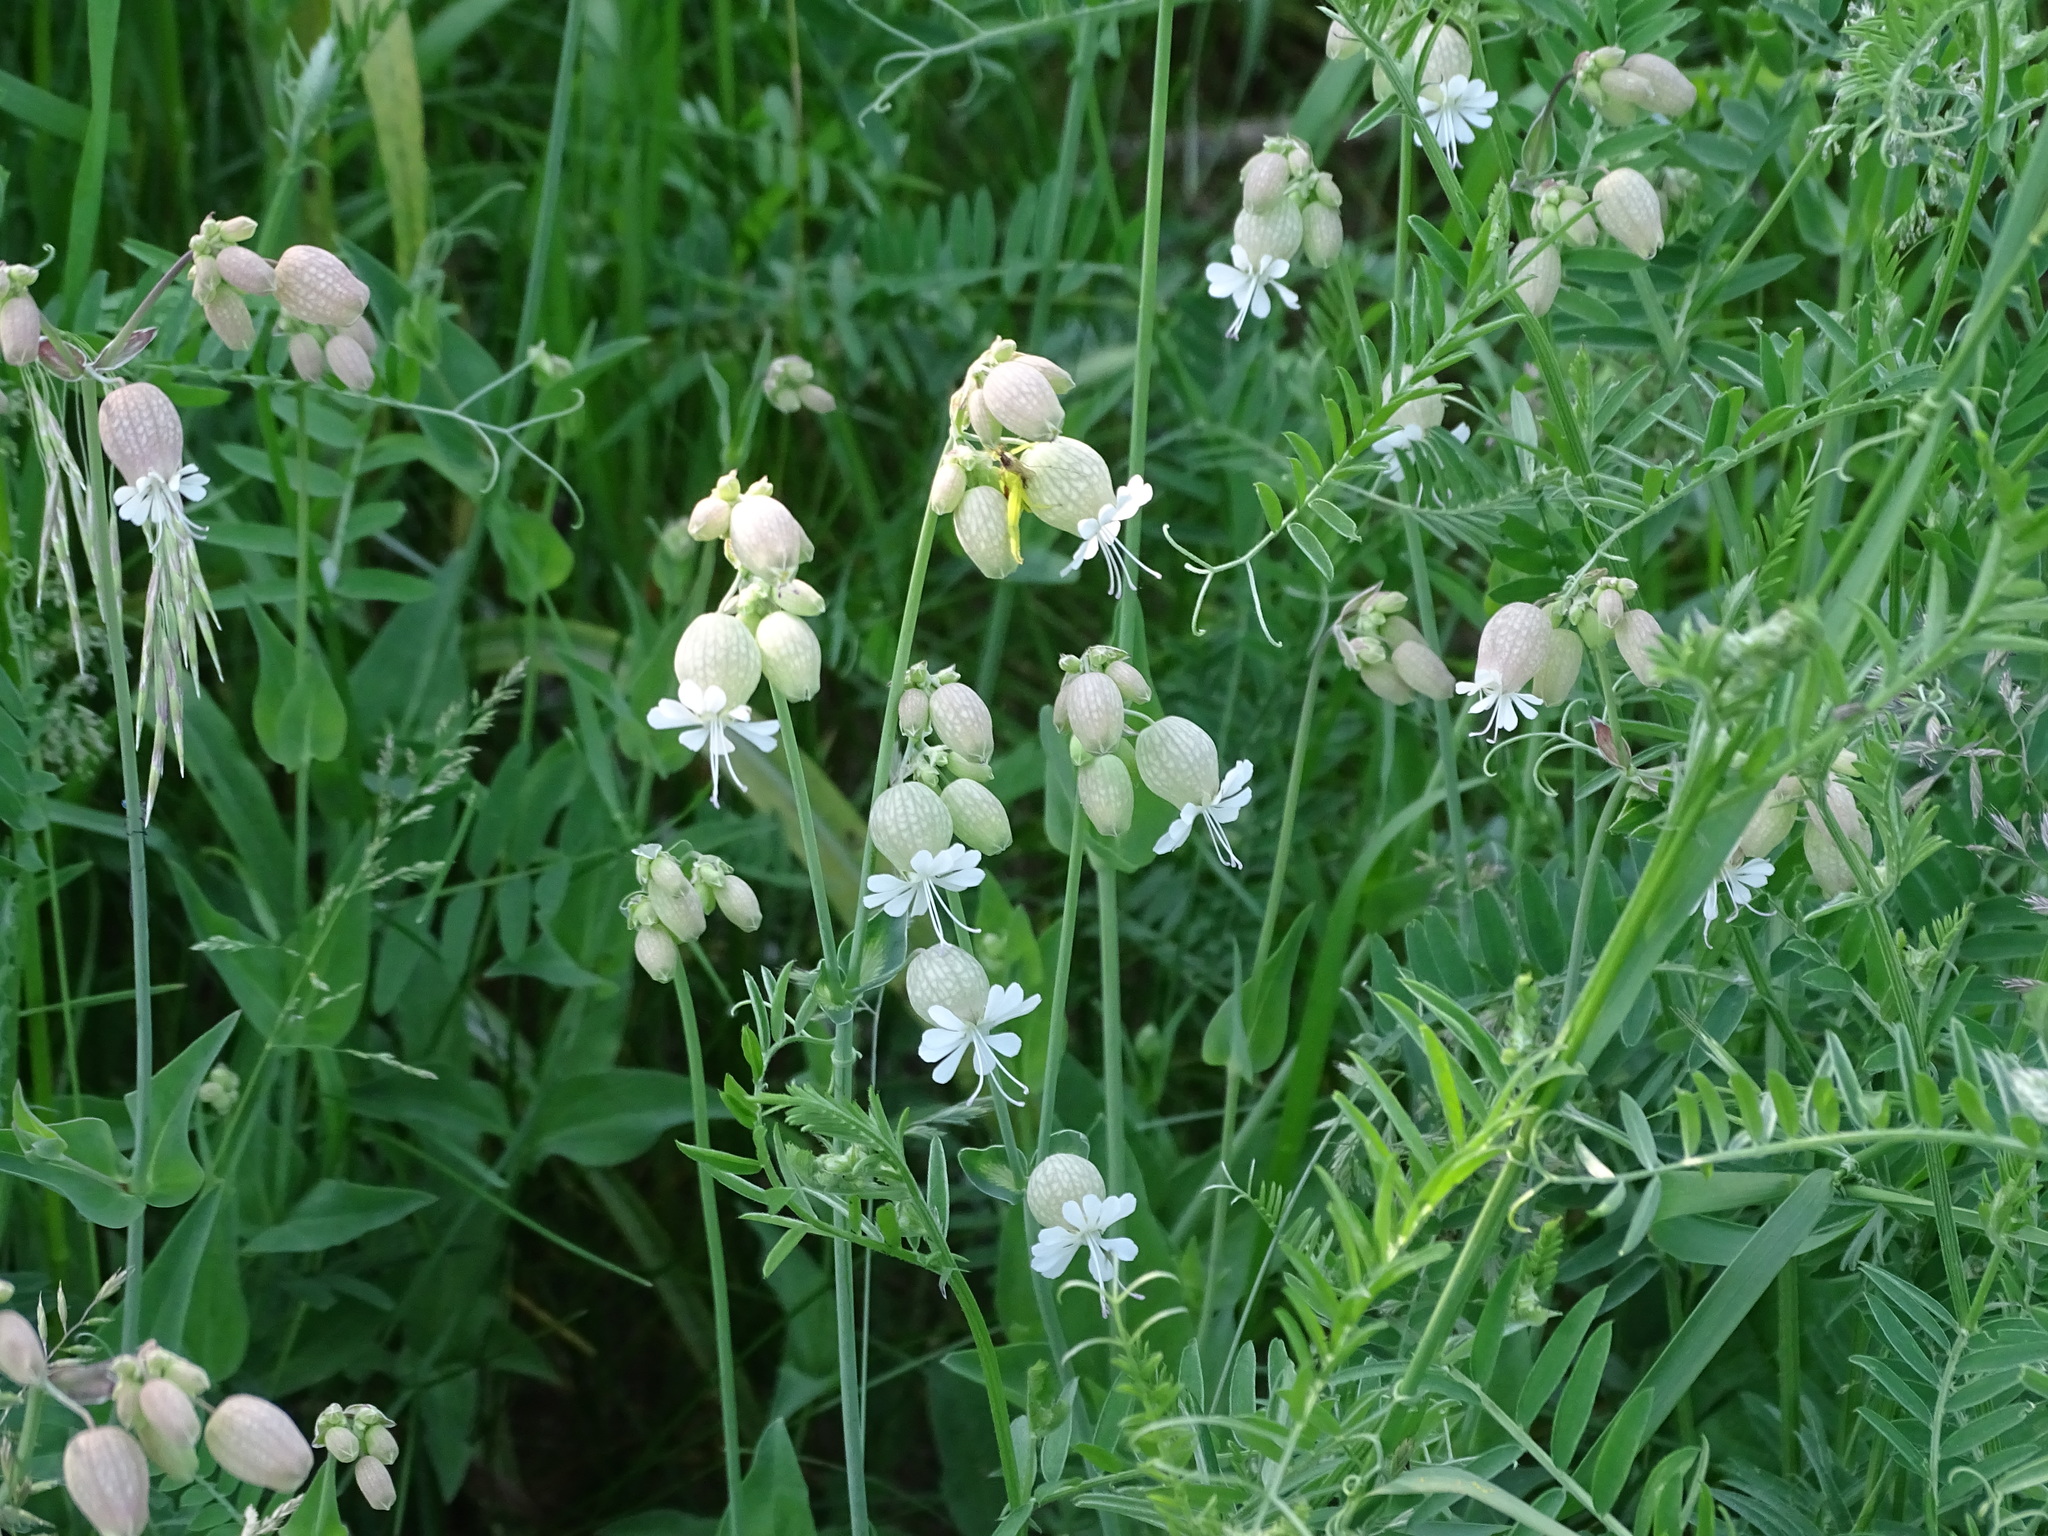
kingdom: Plantae
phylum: Tracheophyta
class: Magnoliopsida
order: Caryophyllales
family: Caryophyllaceae
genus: Silene
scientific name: Silene vulgaris
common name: Bladder campion
